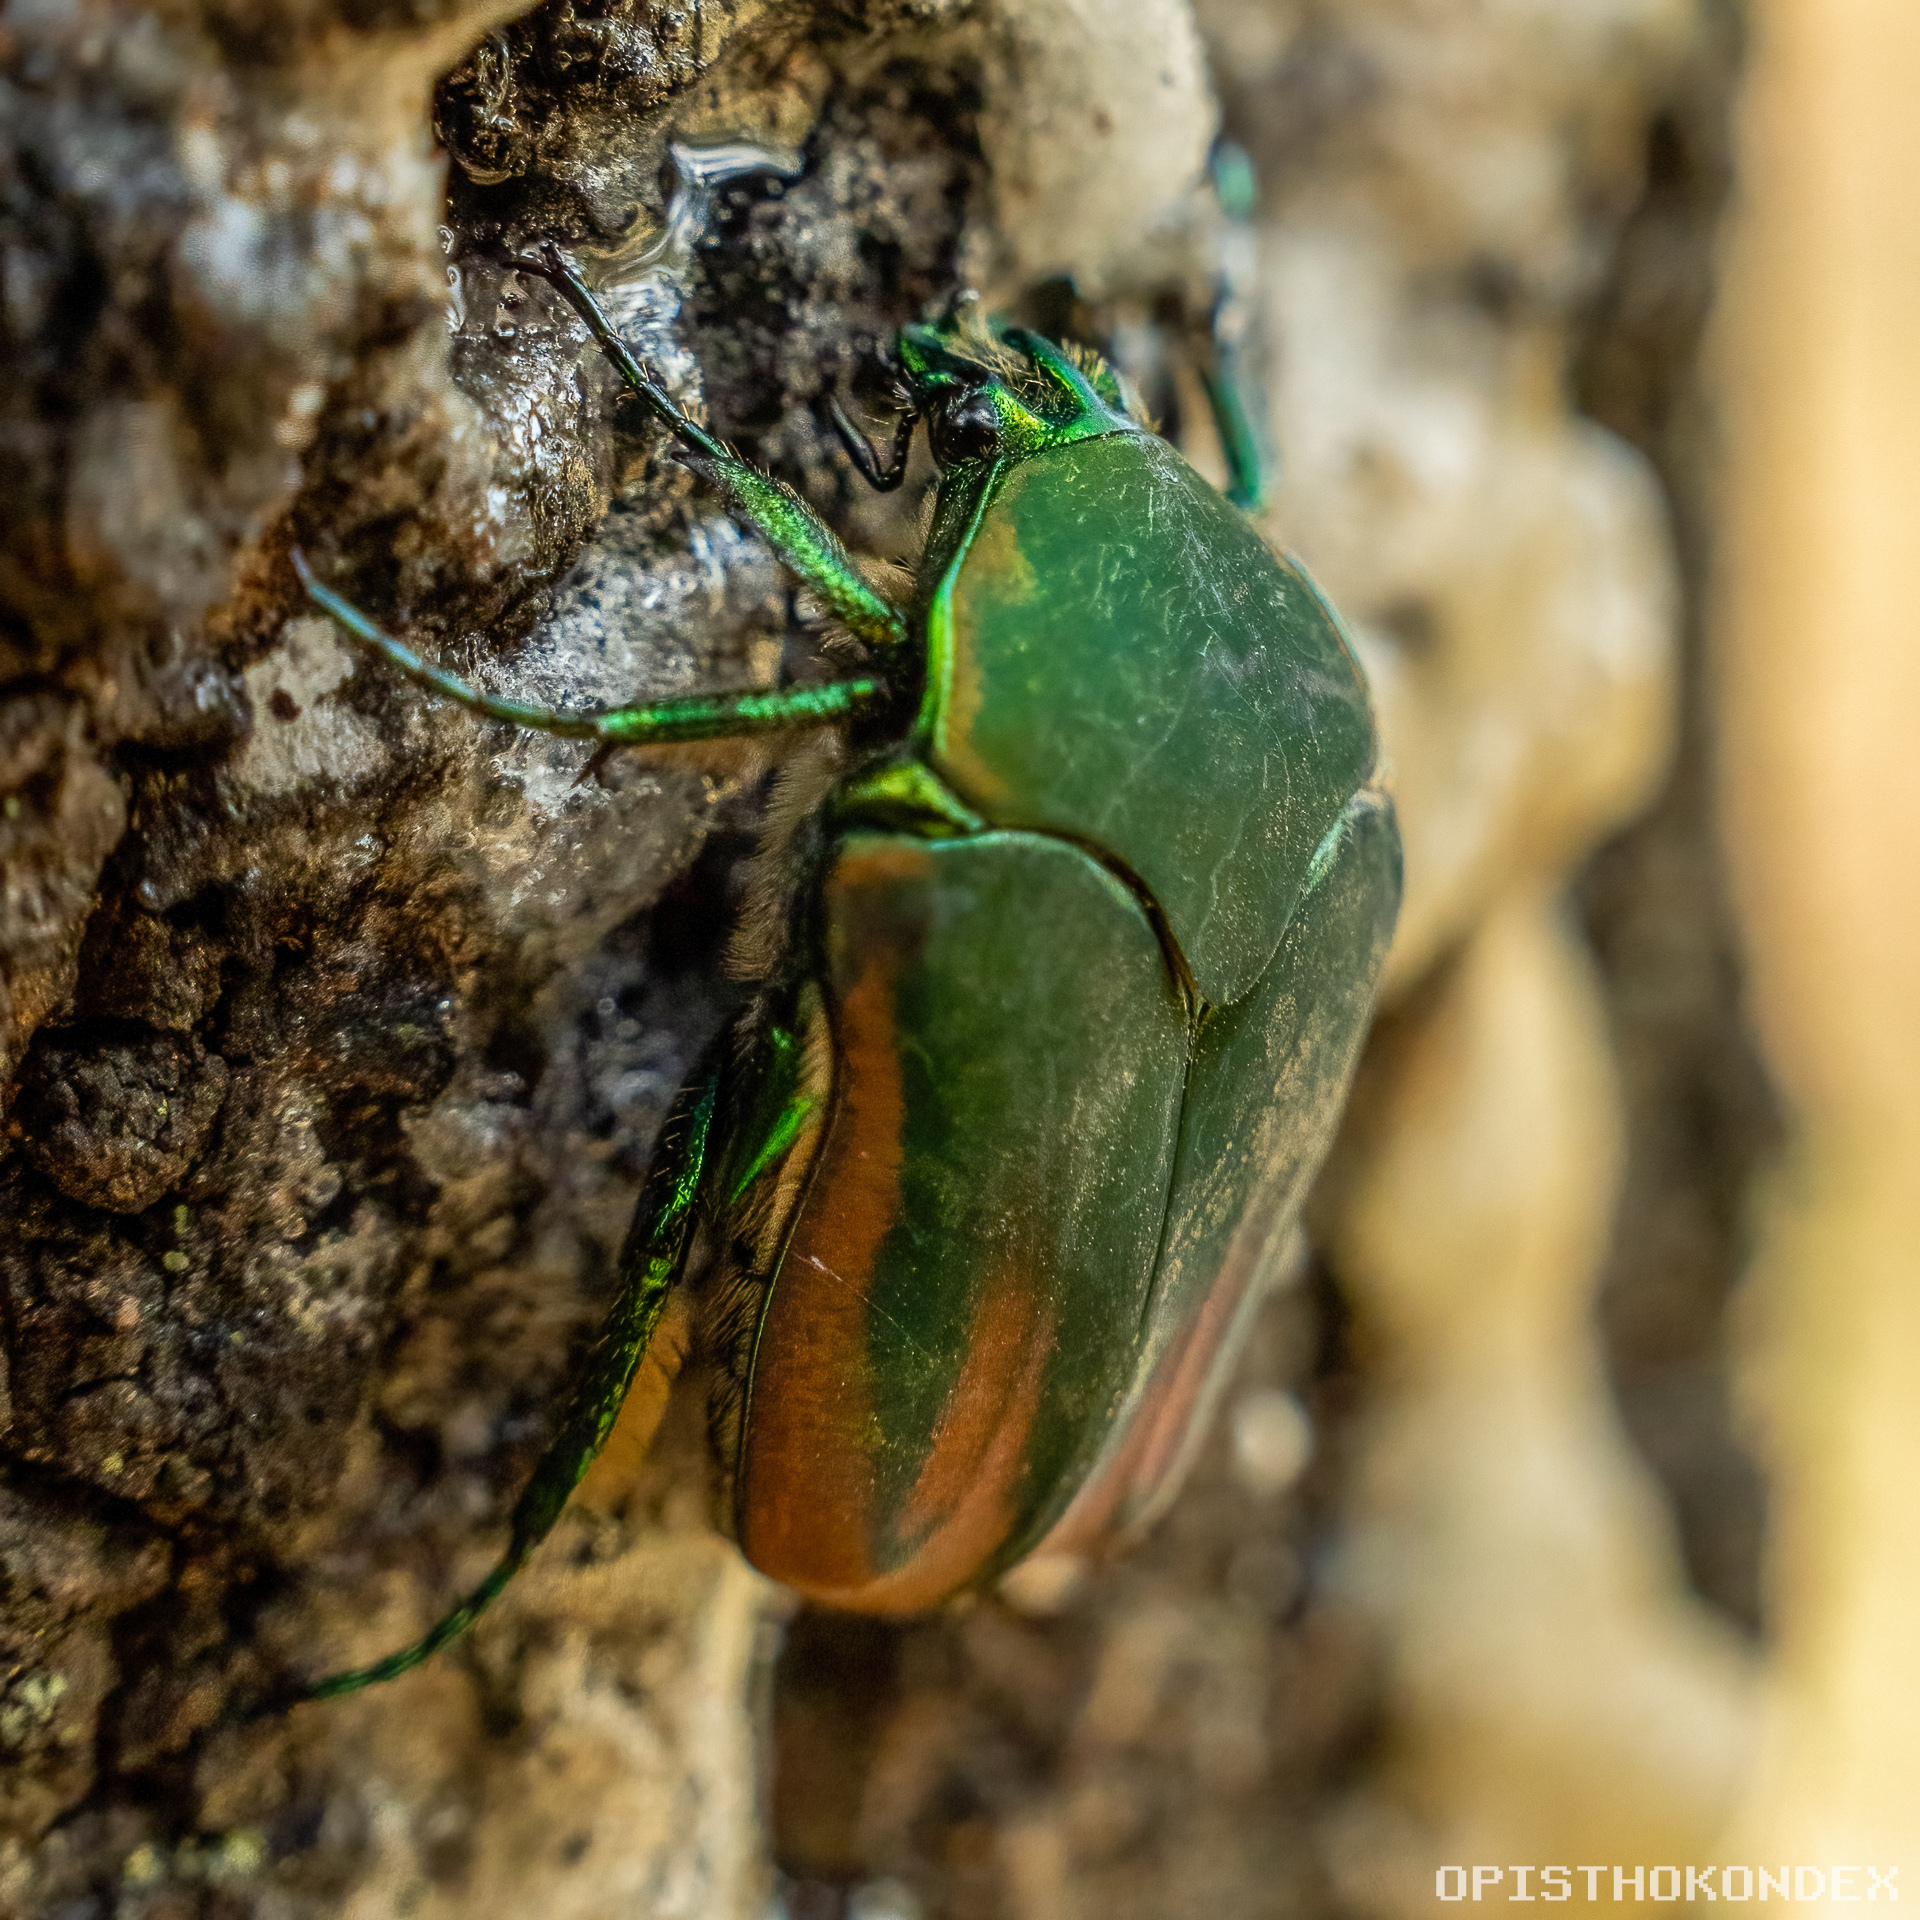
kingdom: Animalia
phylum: Arthropoda
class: Insecta
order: Coleoptera
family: Scarabaeidae
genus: Cotinis
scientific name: Cotinis mutabilis
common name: Figeater beetle
